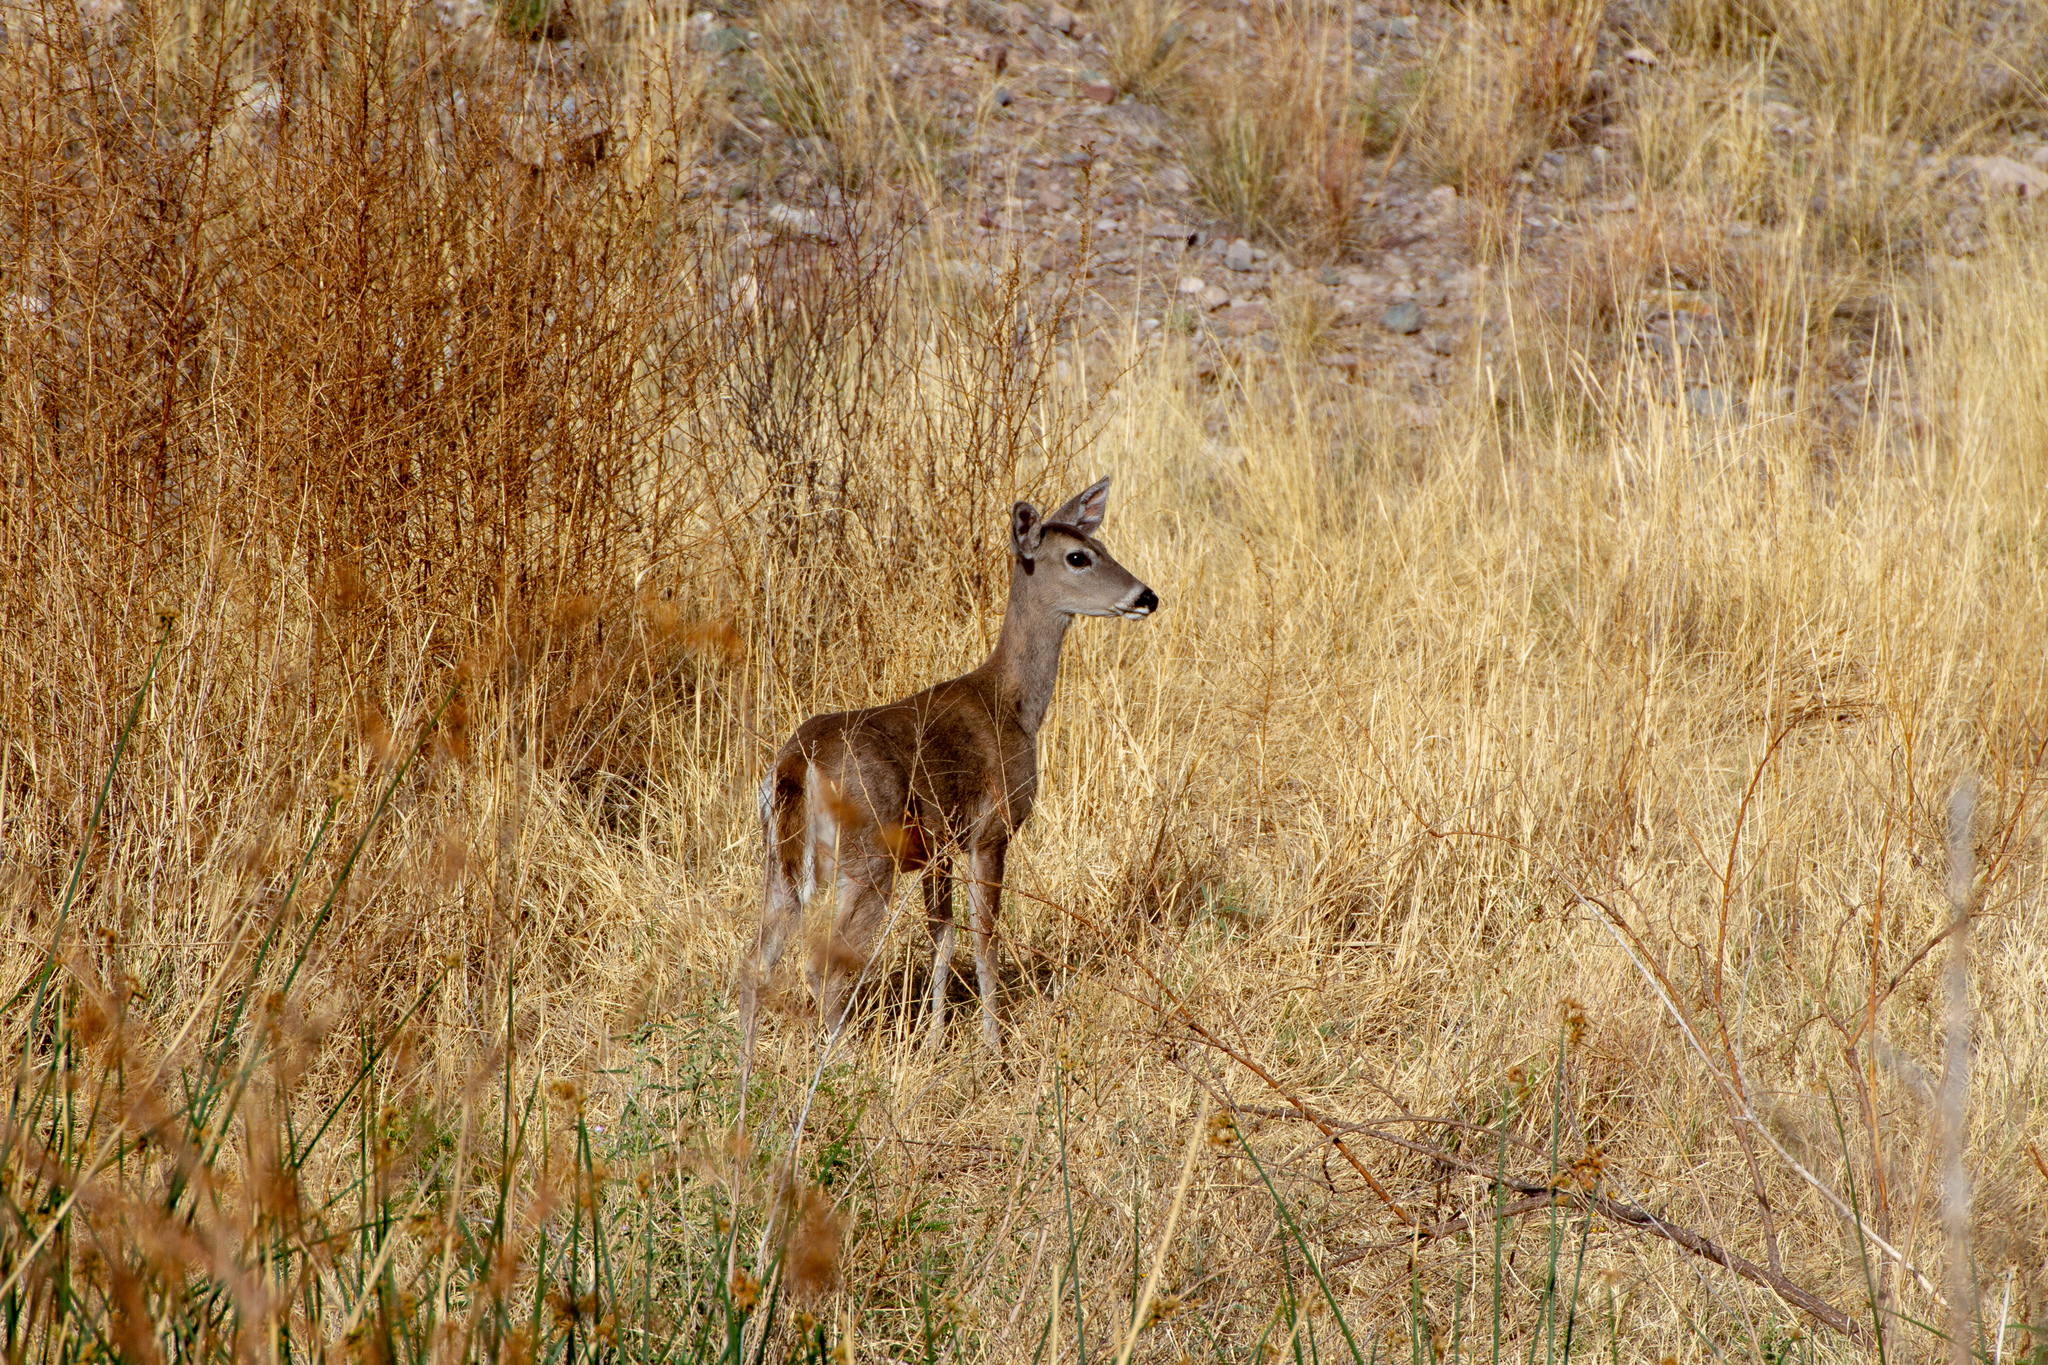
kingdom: Animalia
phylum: Chordata
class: Mammalia
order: Artiodactyla
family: Cervidae
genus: Odocoileus
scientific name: Odocoileus virginianus
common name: White-tailed deer
